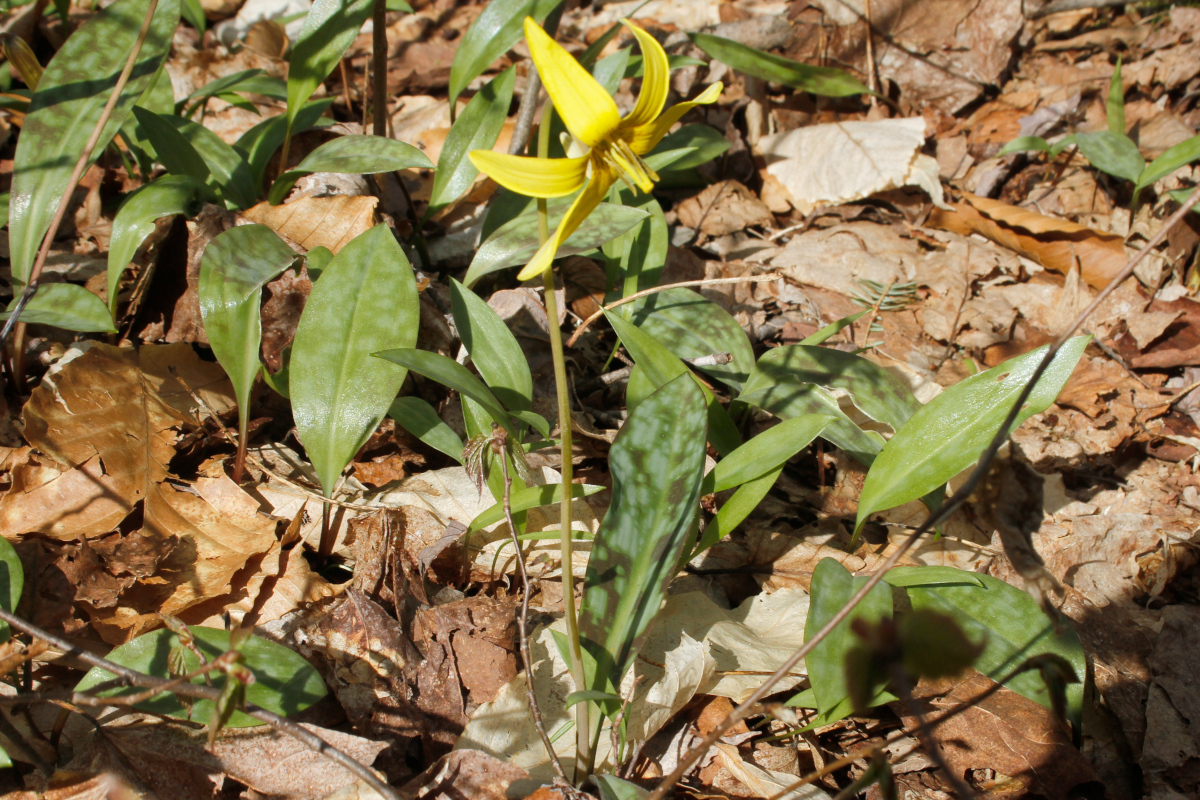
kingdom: Plantae
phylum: Tracheophyta
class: Liliopsida
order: Liliales
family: Liliaceae
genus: Erythronium
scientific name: Erythronium americanum
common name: Yellow adder's-tongue
